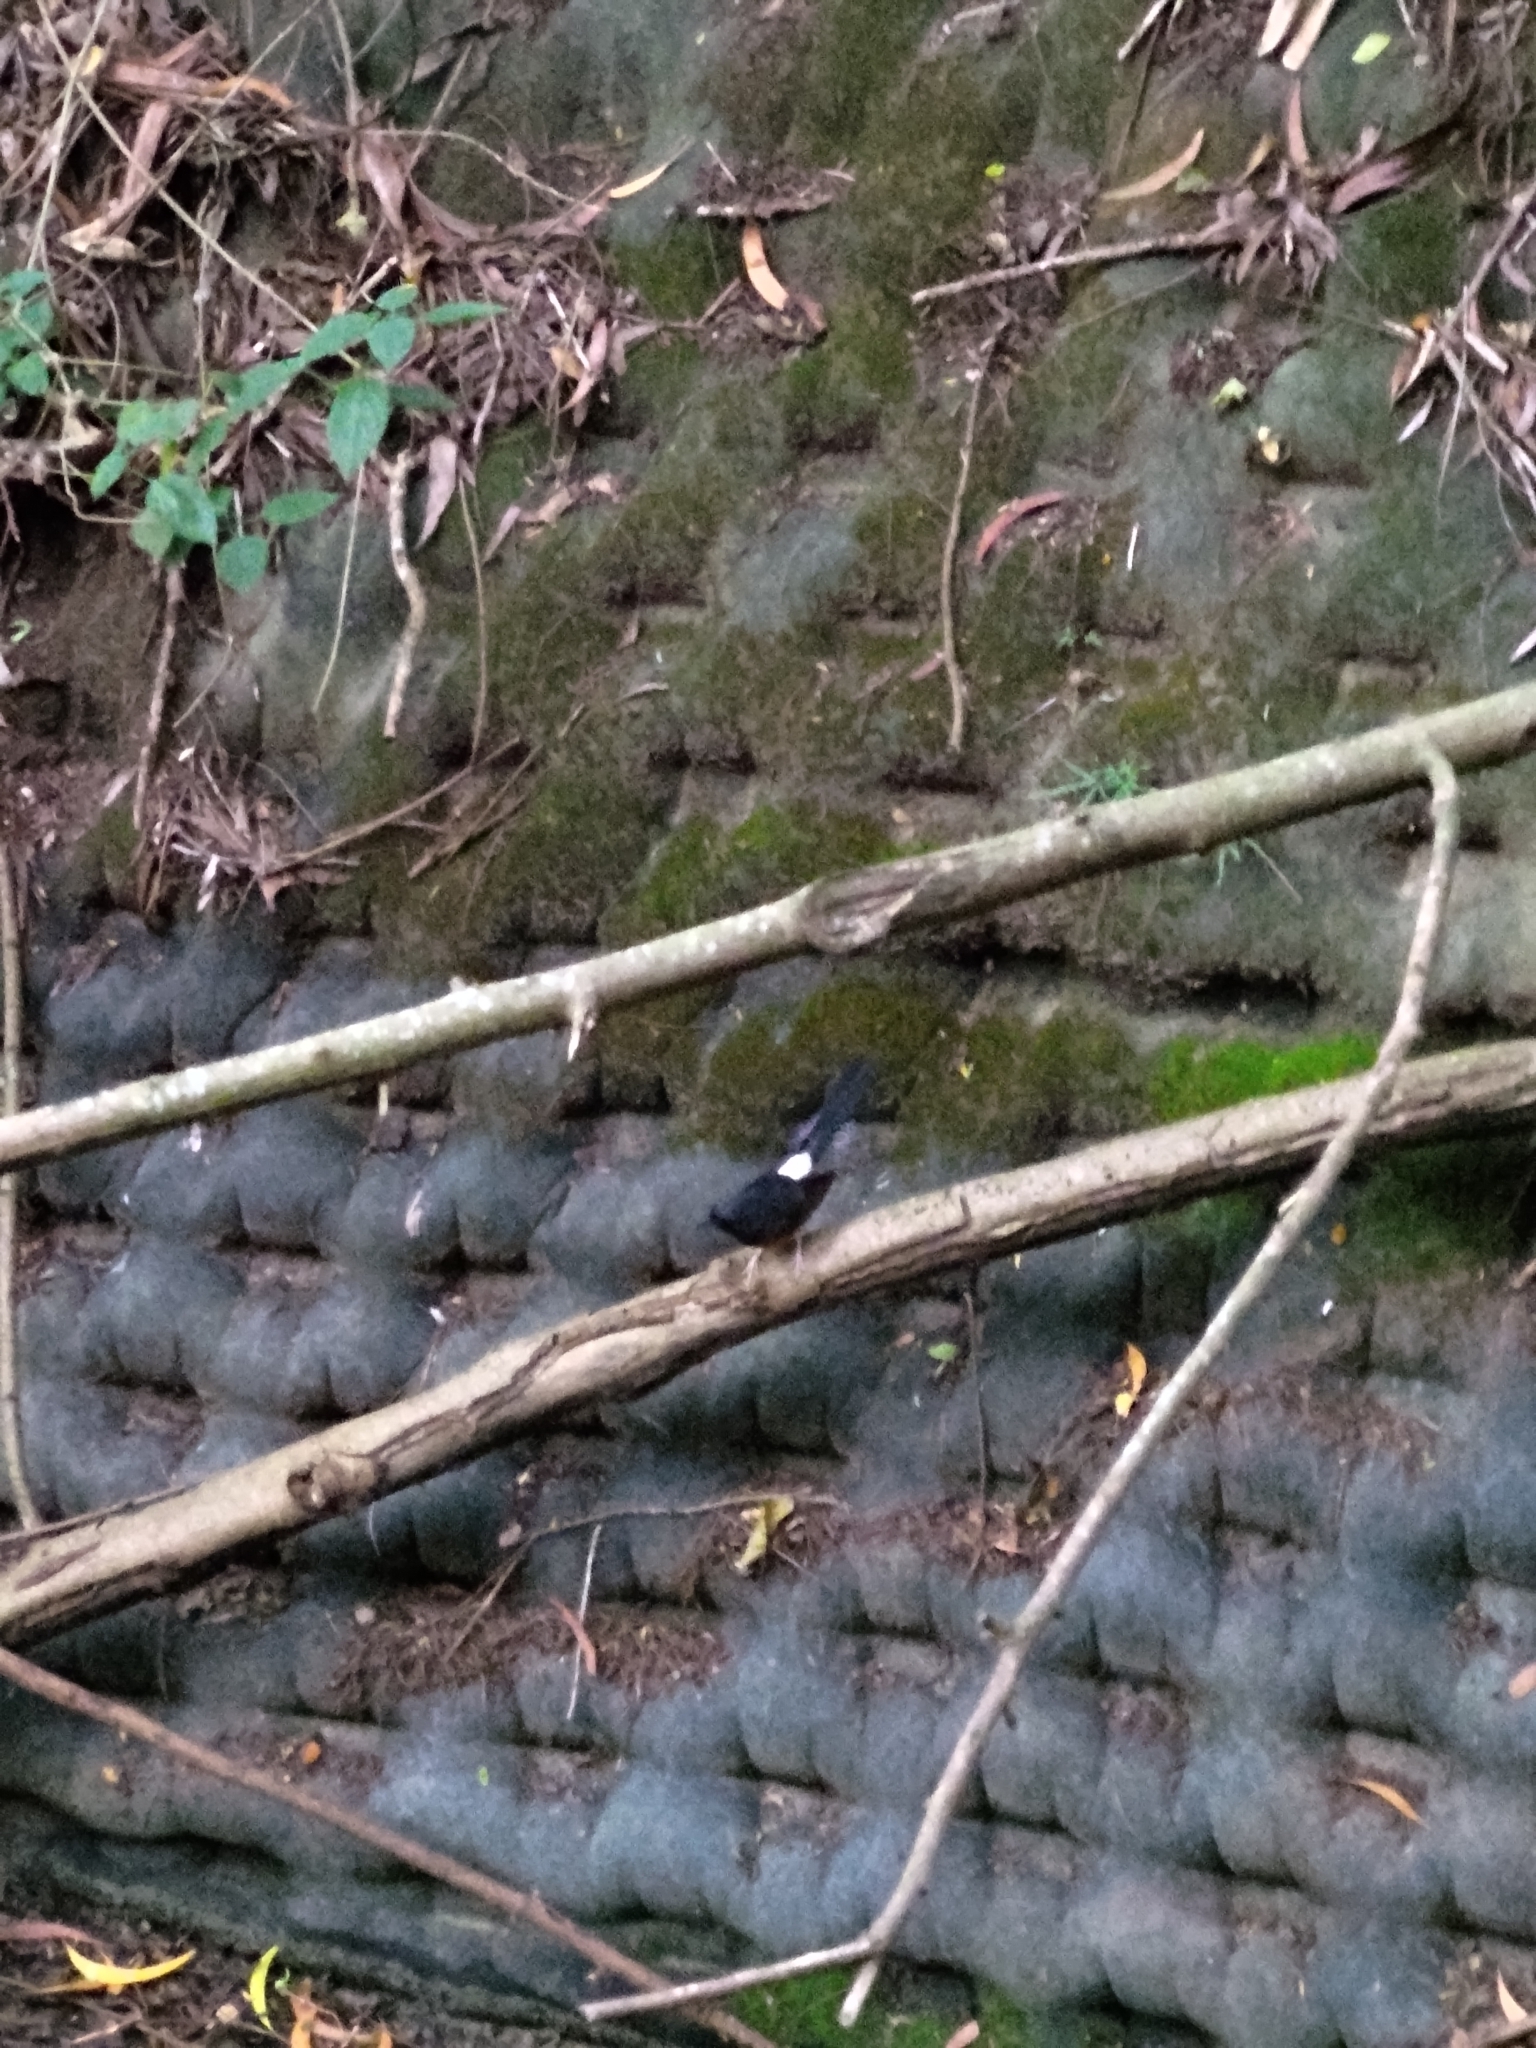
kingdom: Animalia
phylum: Chordata
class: Aves
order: Passeriformes
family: Muscicapidae
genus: Copsychus
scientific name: Copsychus malabaricus
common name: White-rumped shama
